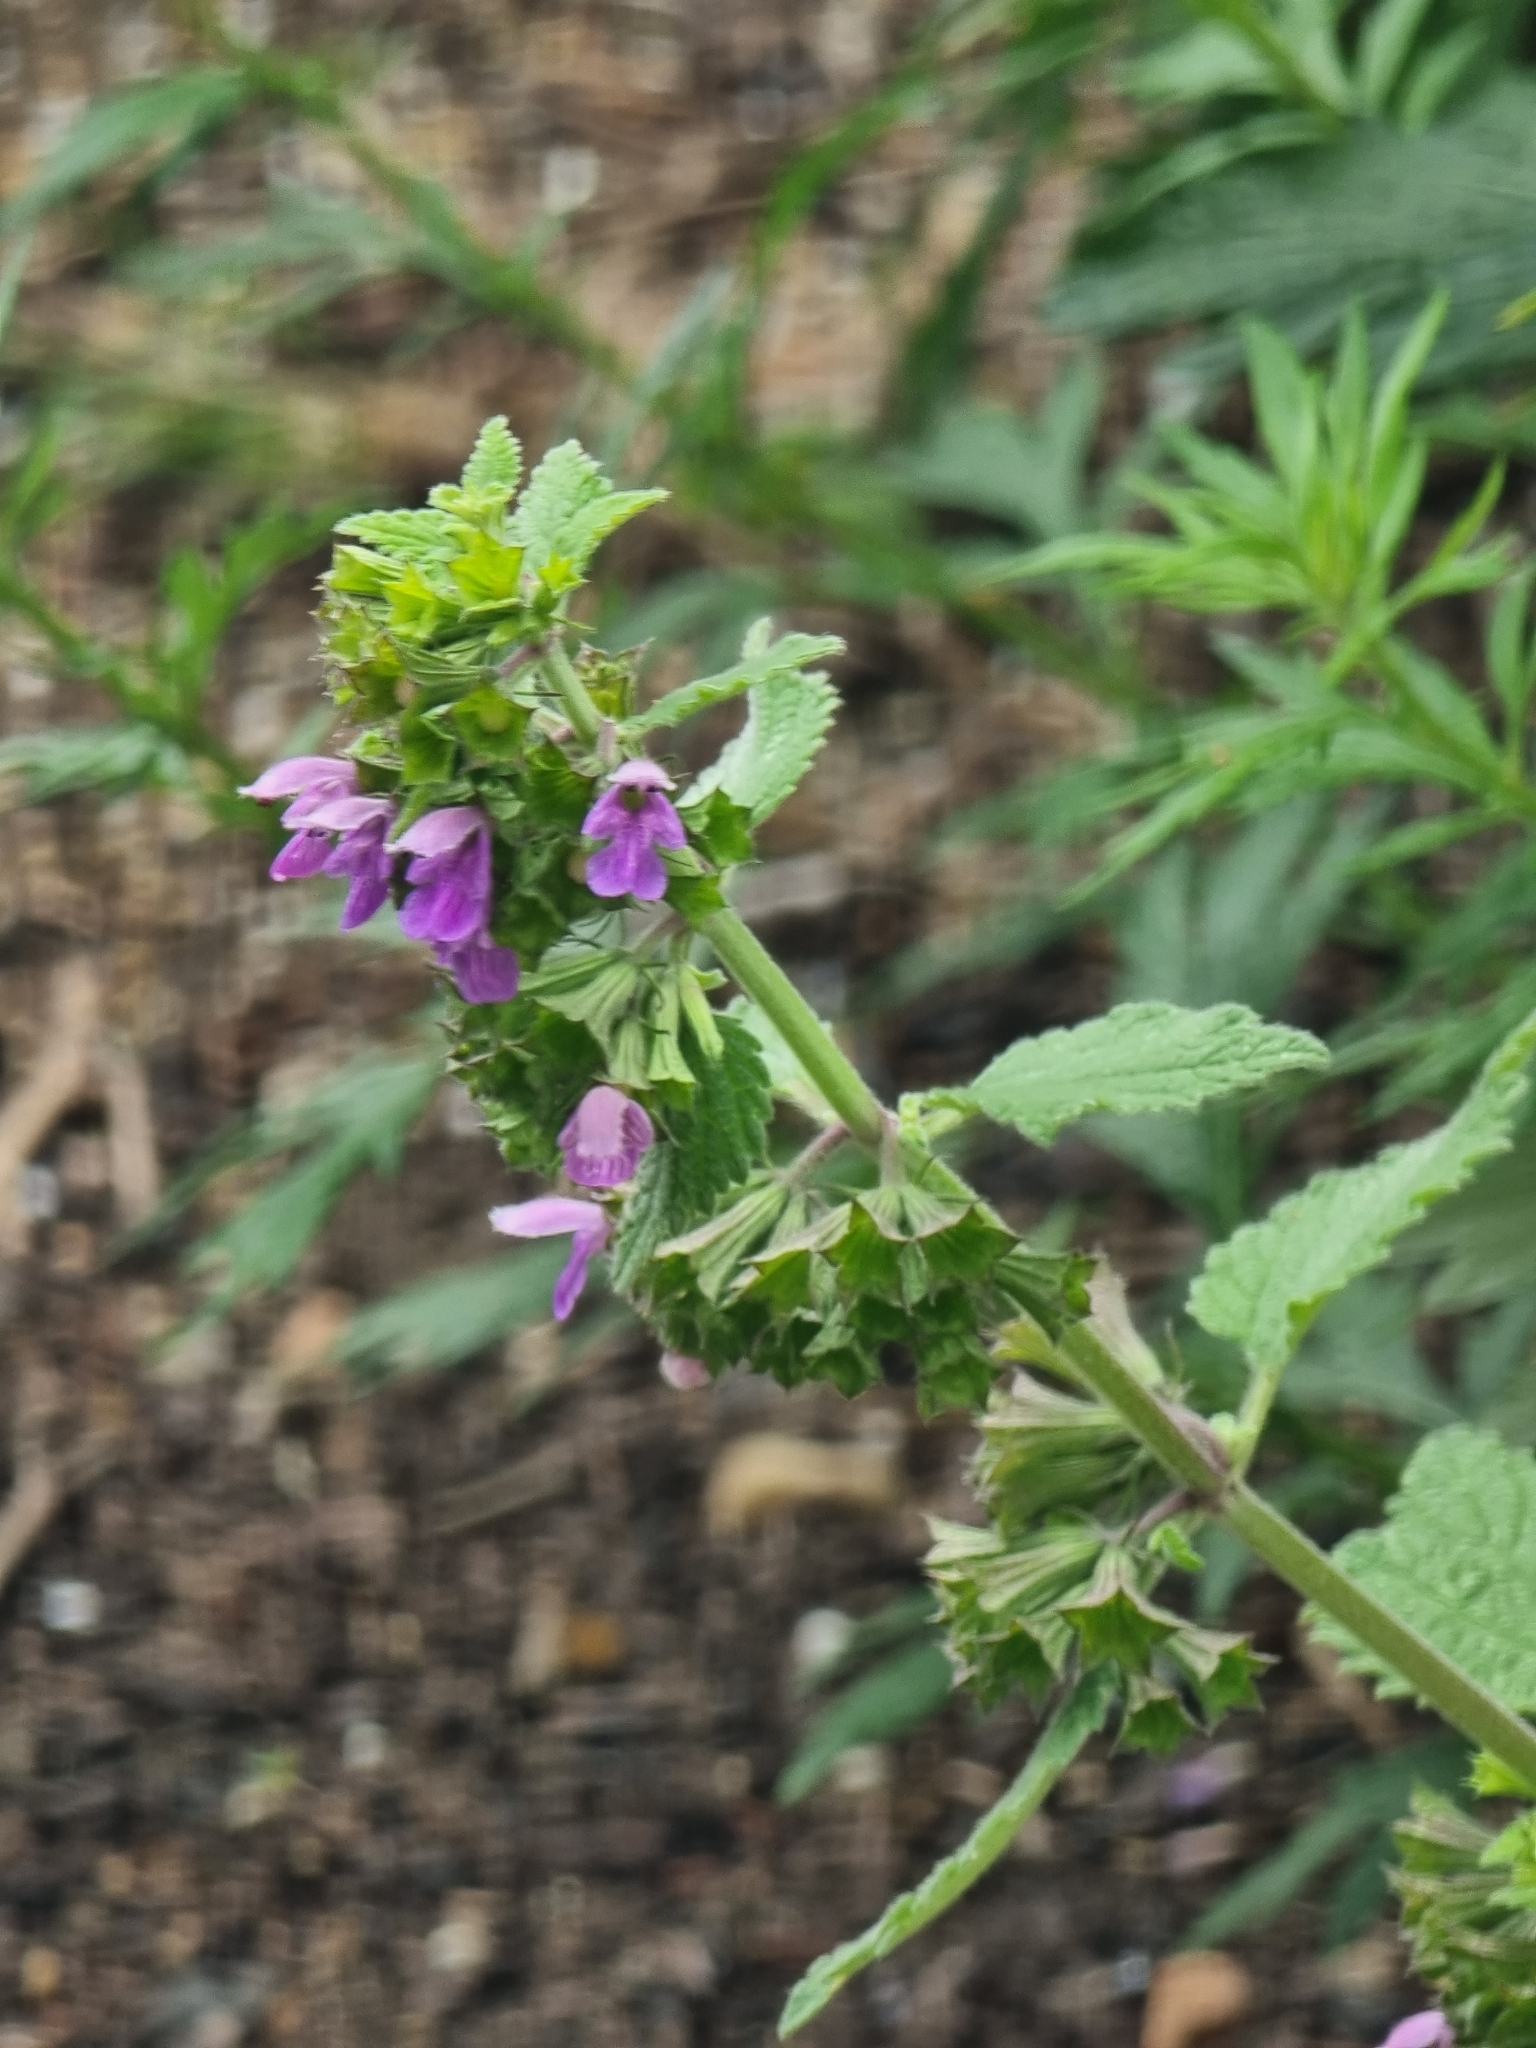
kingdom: Plantae
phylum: Tracheophyta
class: Magnoliopsida
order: Lamiales
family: Lamiaceae
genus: Ballota
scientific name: Ballota nigra
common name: Black horehound
